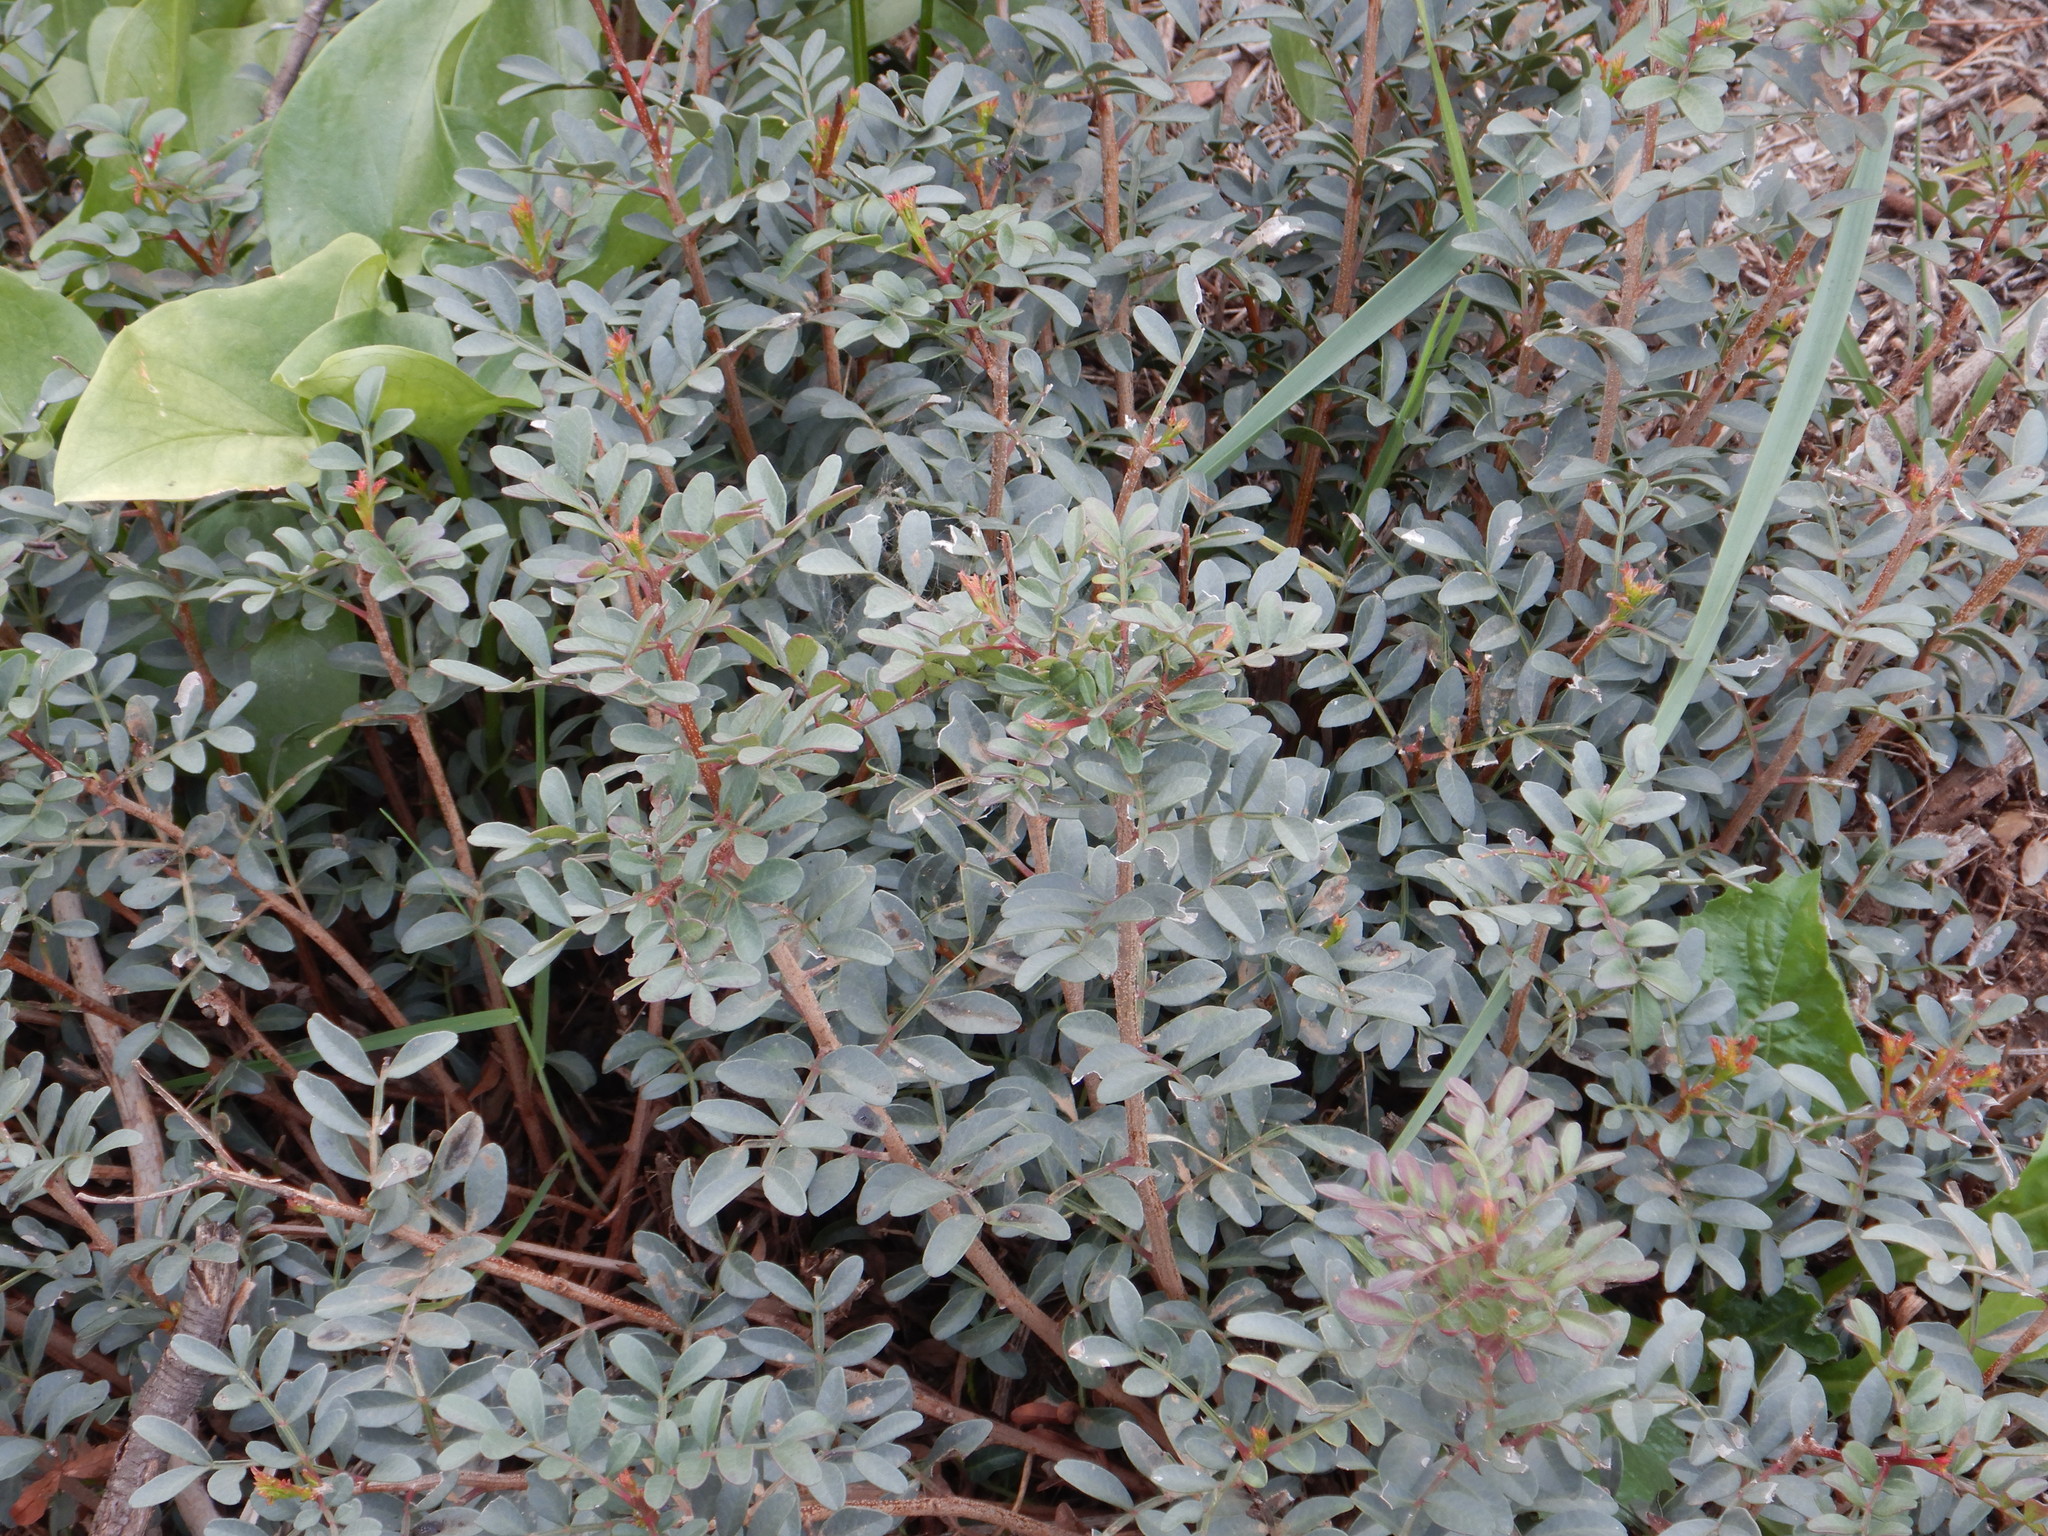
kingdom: Plantae
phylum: Tracheophyta
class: Magnoliopsida
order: Sapindales
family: Anacardiaceae
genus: Pistacia
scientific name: Pistacia lentiscus
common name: Lentisk
